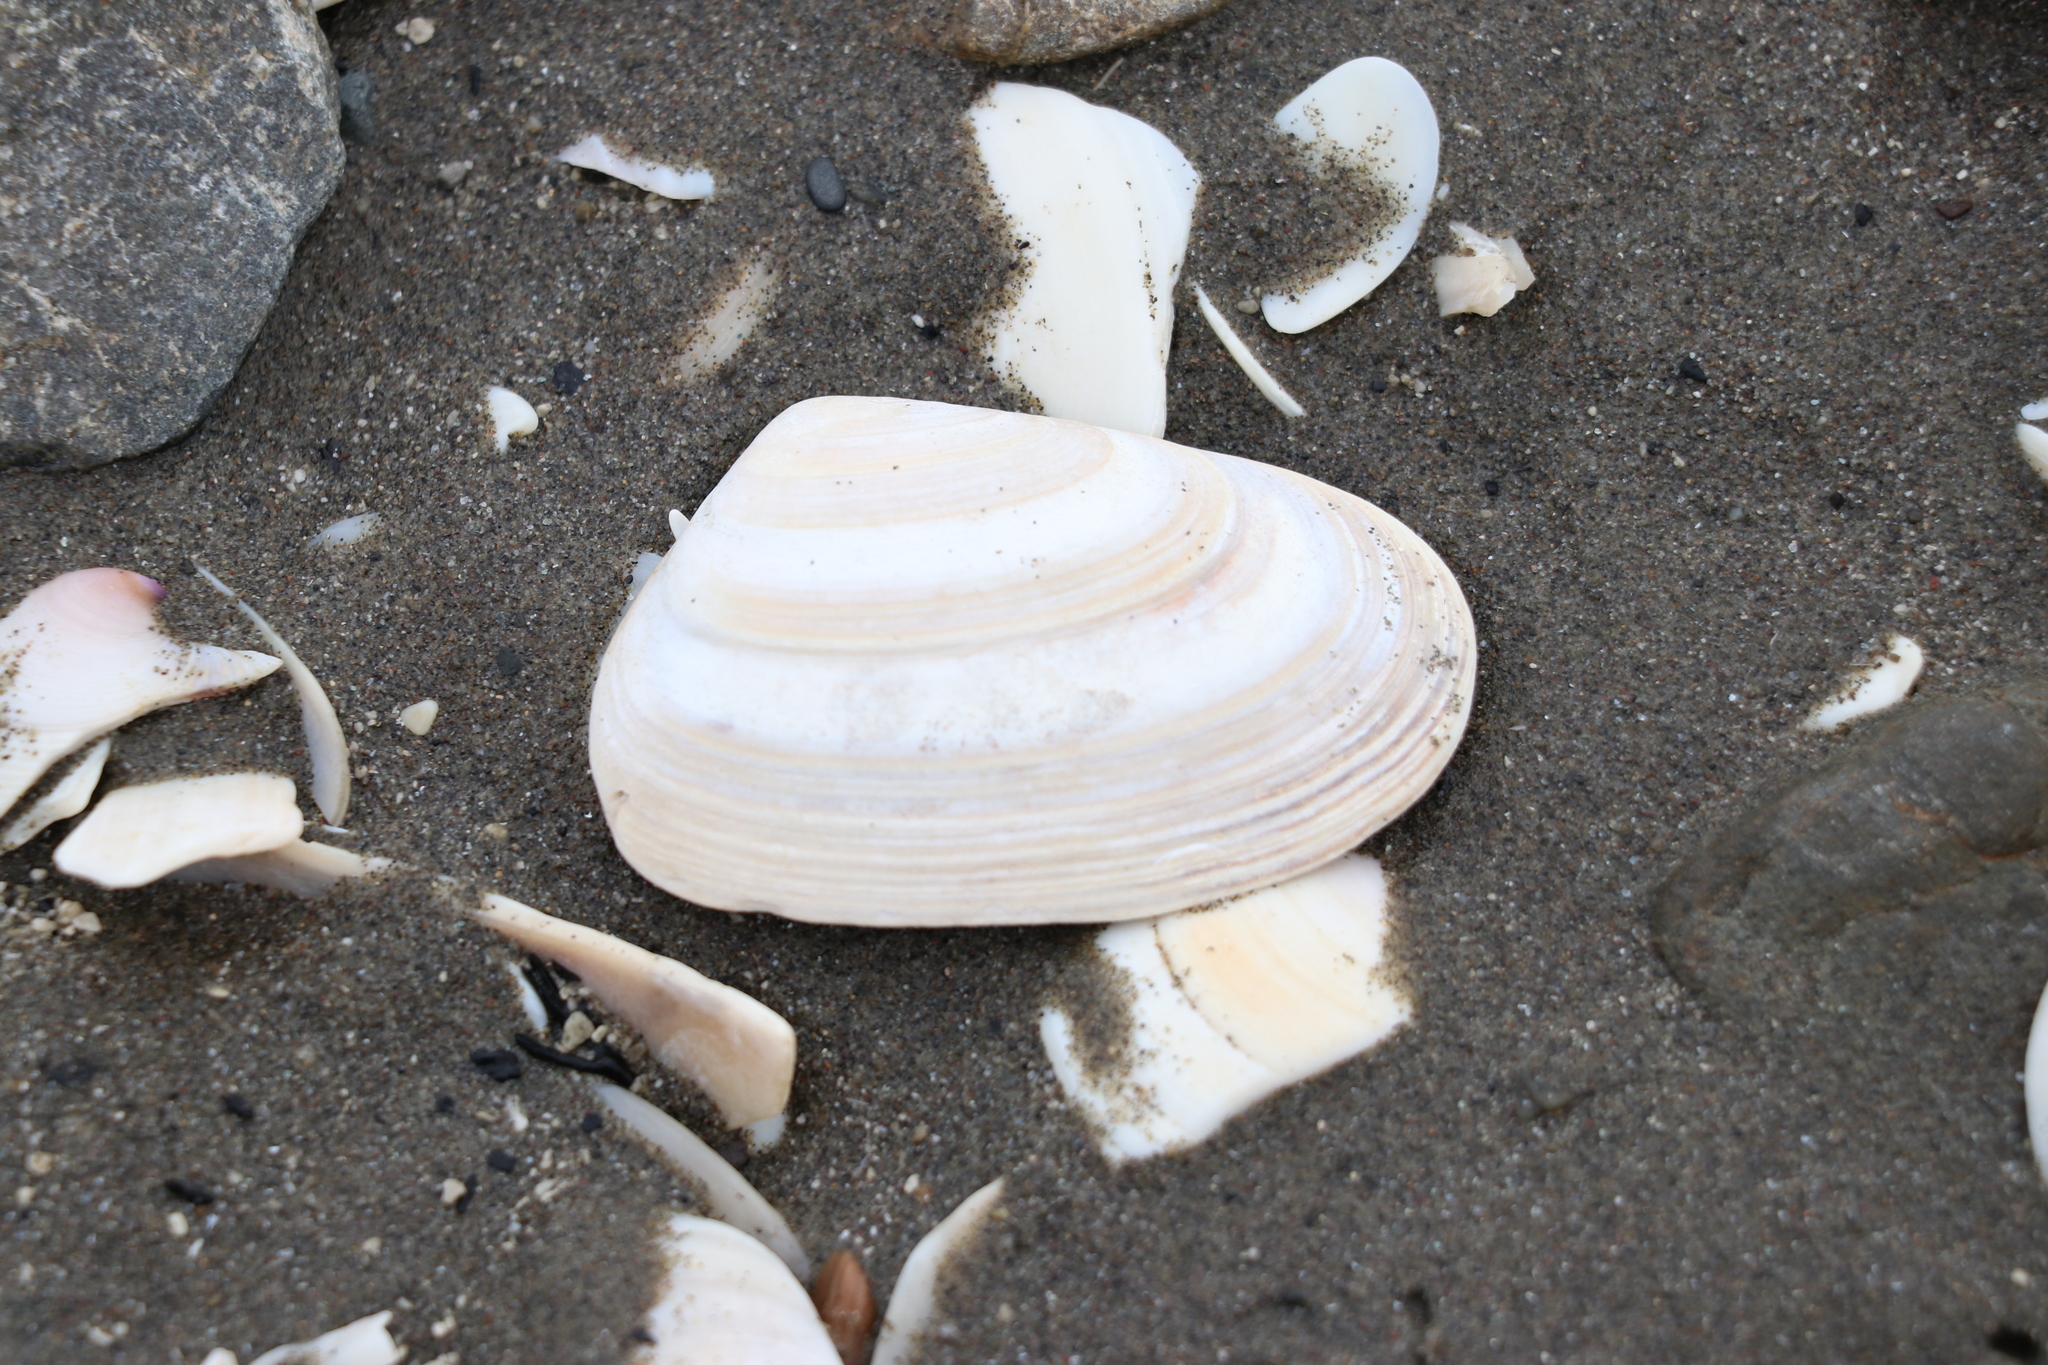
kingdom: Animalia
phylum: Mollusca
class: Bivalvia
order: Venerida
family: Mesodesmatidae
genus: Paphies
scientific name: Paphies subtriangulata
